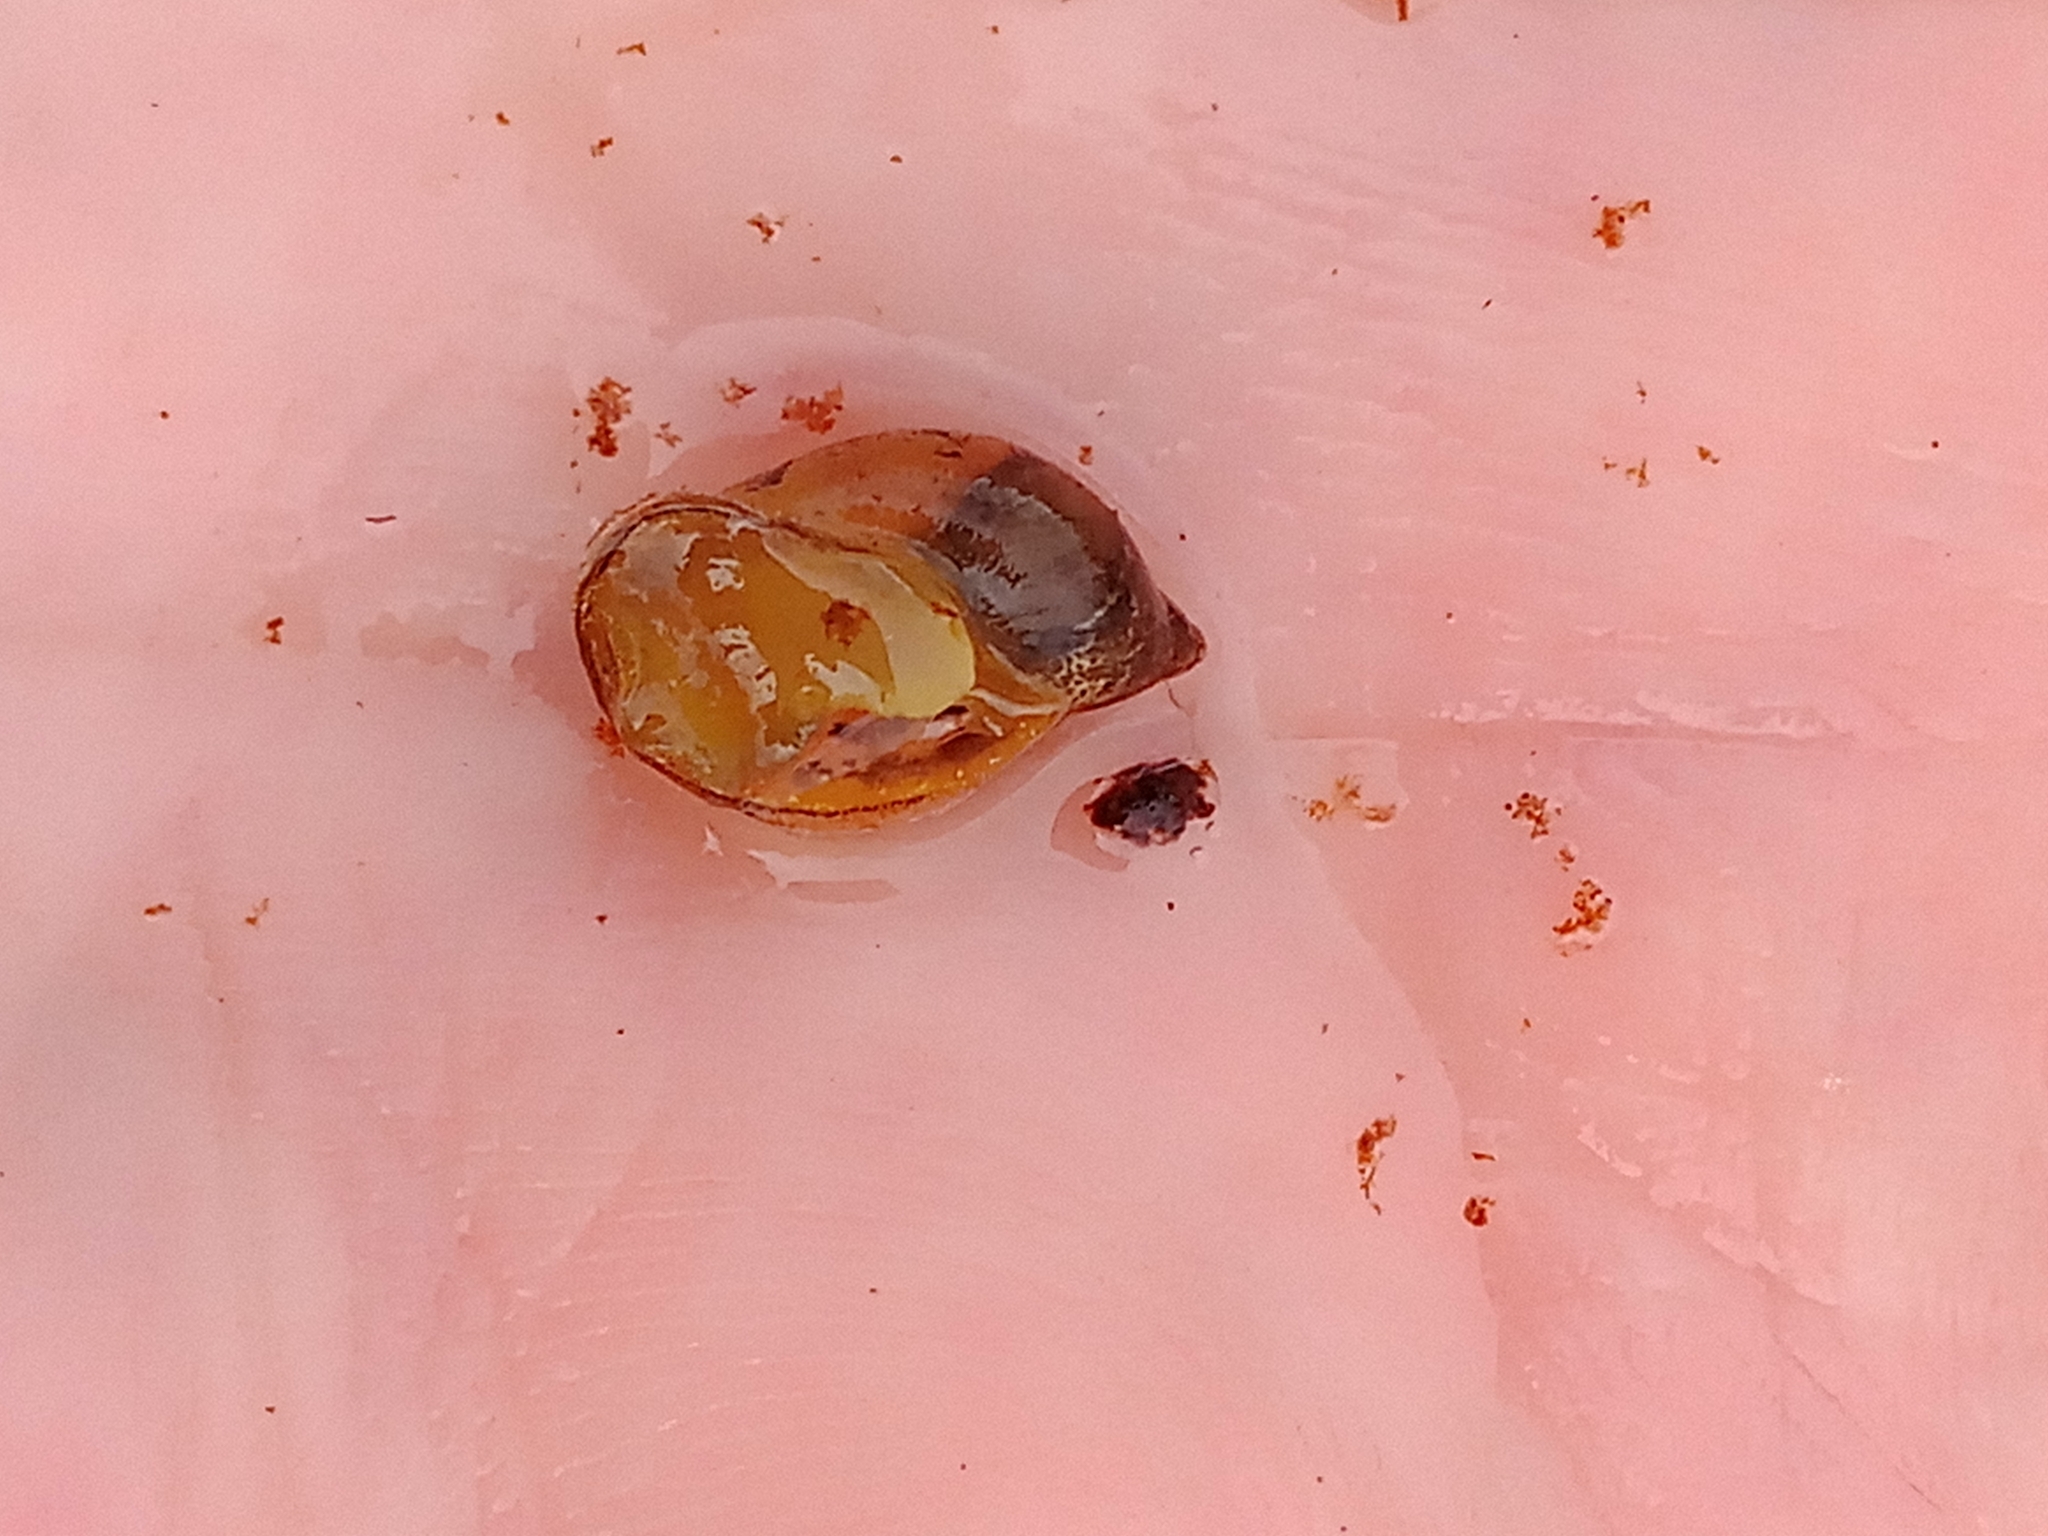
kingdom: Animalia
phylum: Mollusca
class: Gastropoda
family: Lymnaeidae
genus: Ampullaceana
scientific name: Ampullaceana balthica
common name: Wandering pond snail
